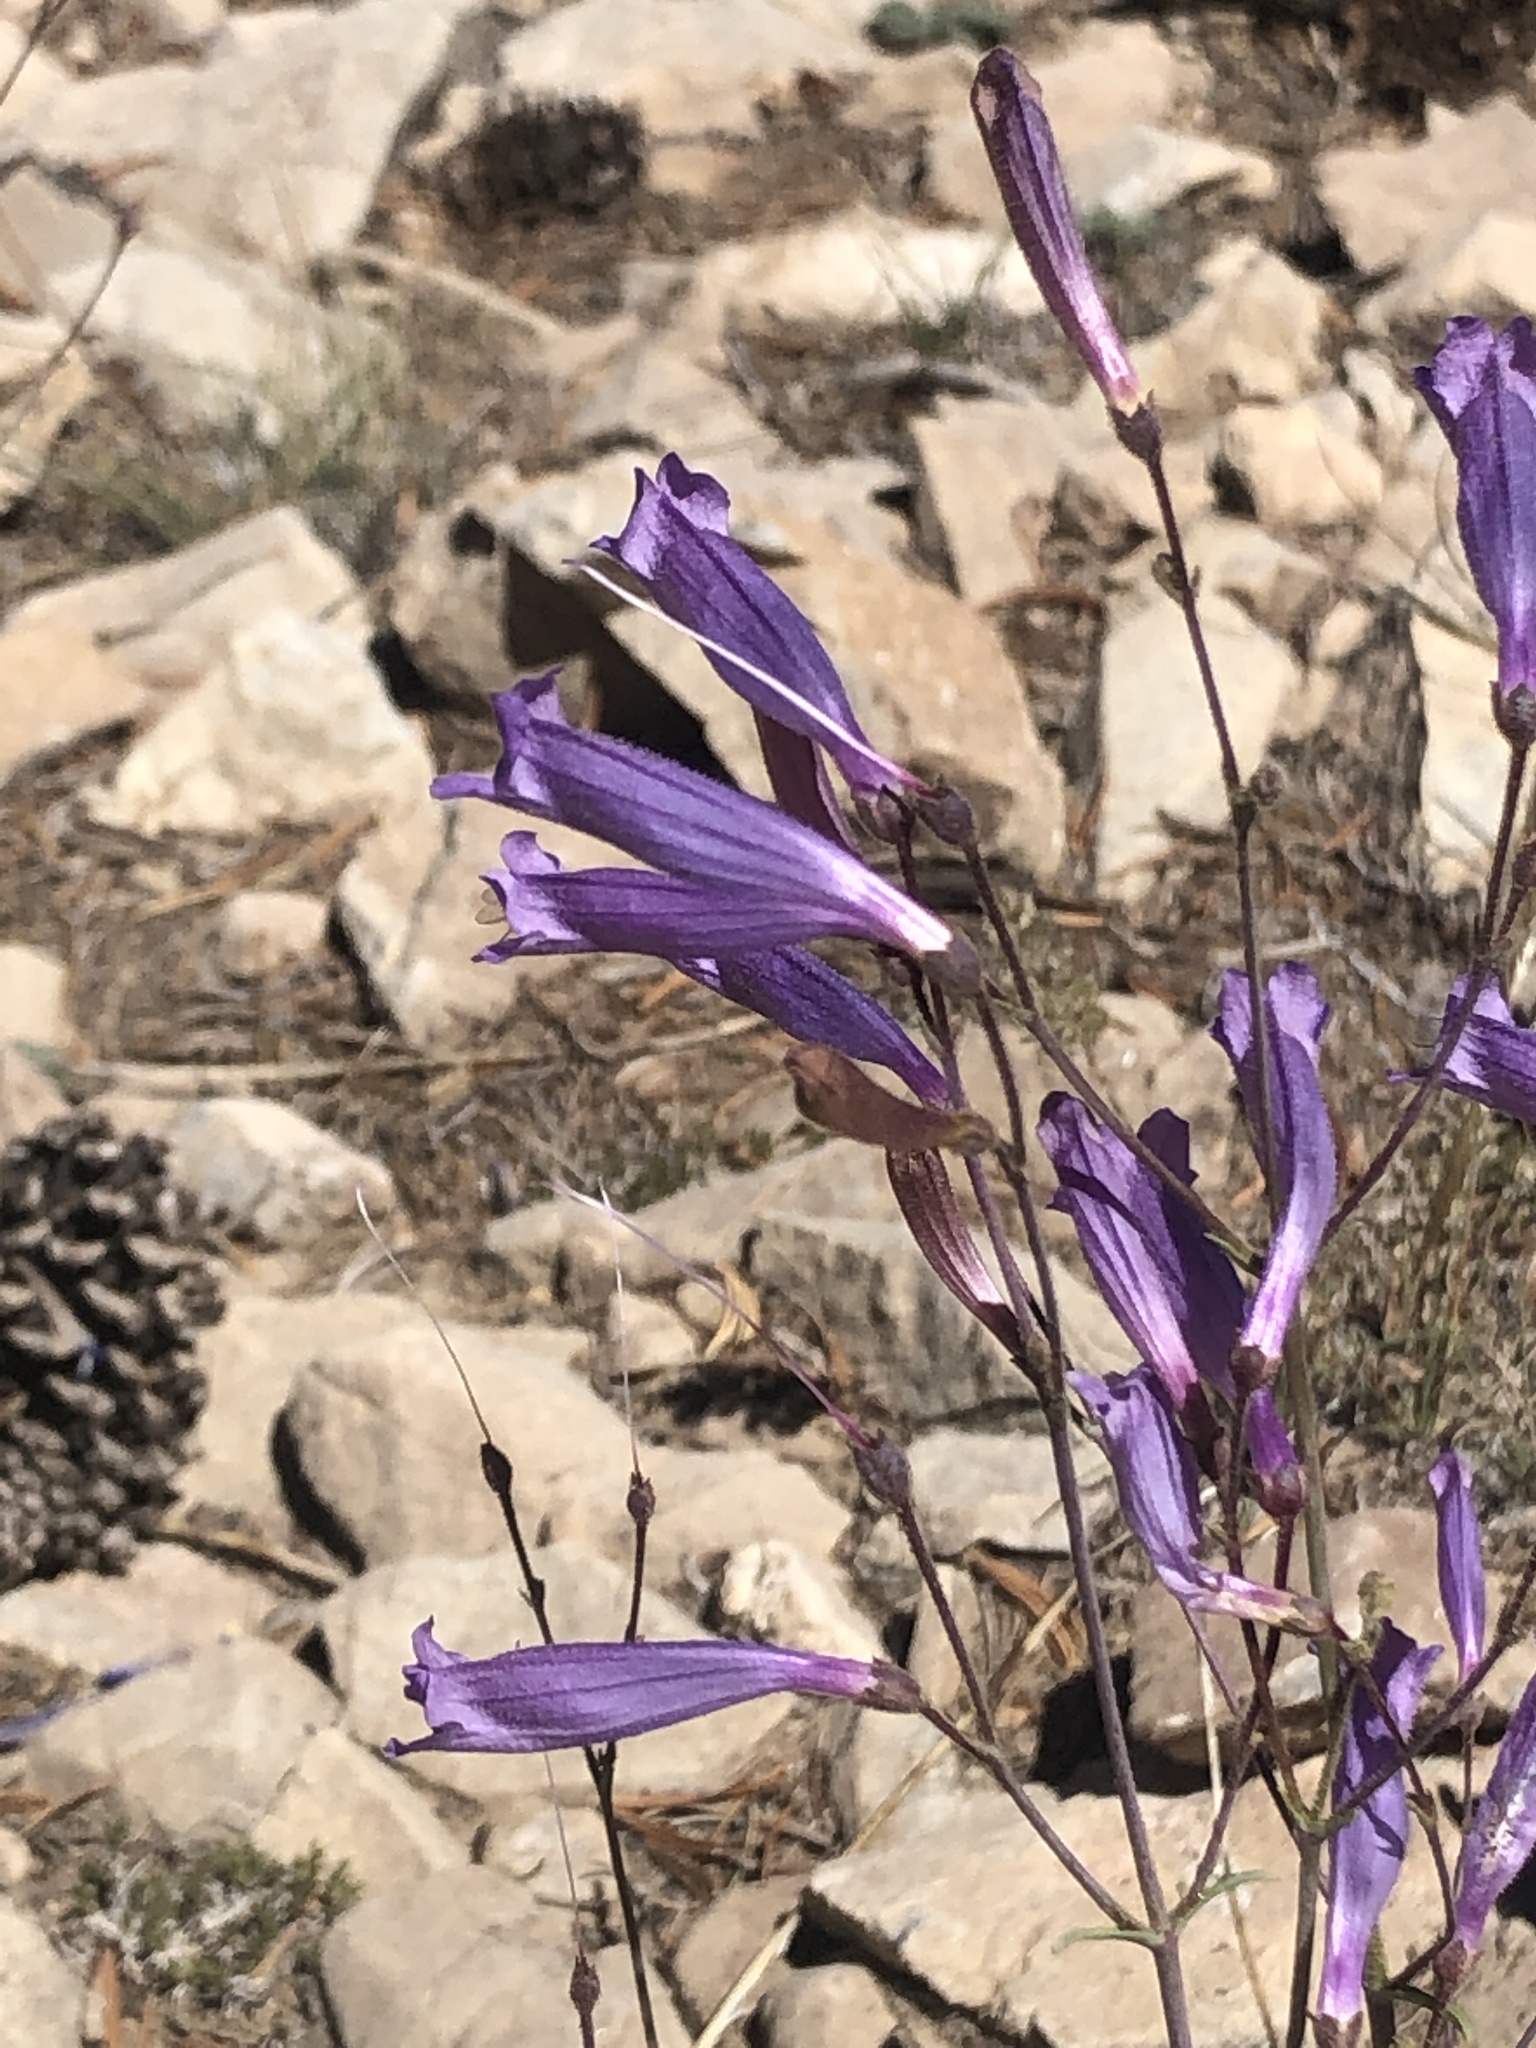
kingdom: Plantae
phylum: Tracheophyta
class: Magnoliopsida
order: Lamiales
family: Plantaginaceae
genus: Penstemon
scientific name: Penstemon scapoides
